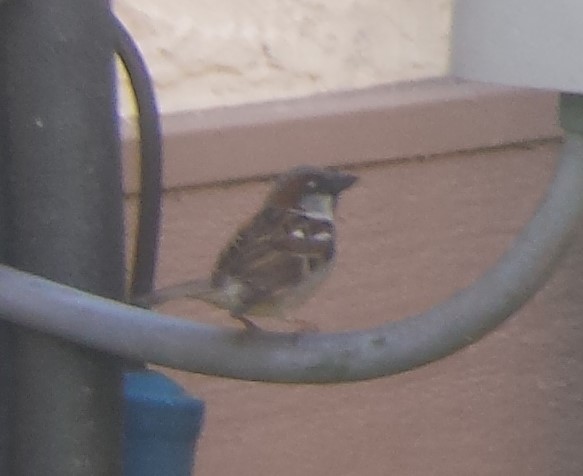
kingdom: Animalia
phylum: Chordata
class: Aves
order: Passeriformes
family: Passeridae
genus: Passer
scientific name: Passer domesticus
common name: House sparrow
